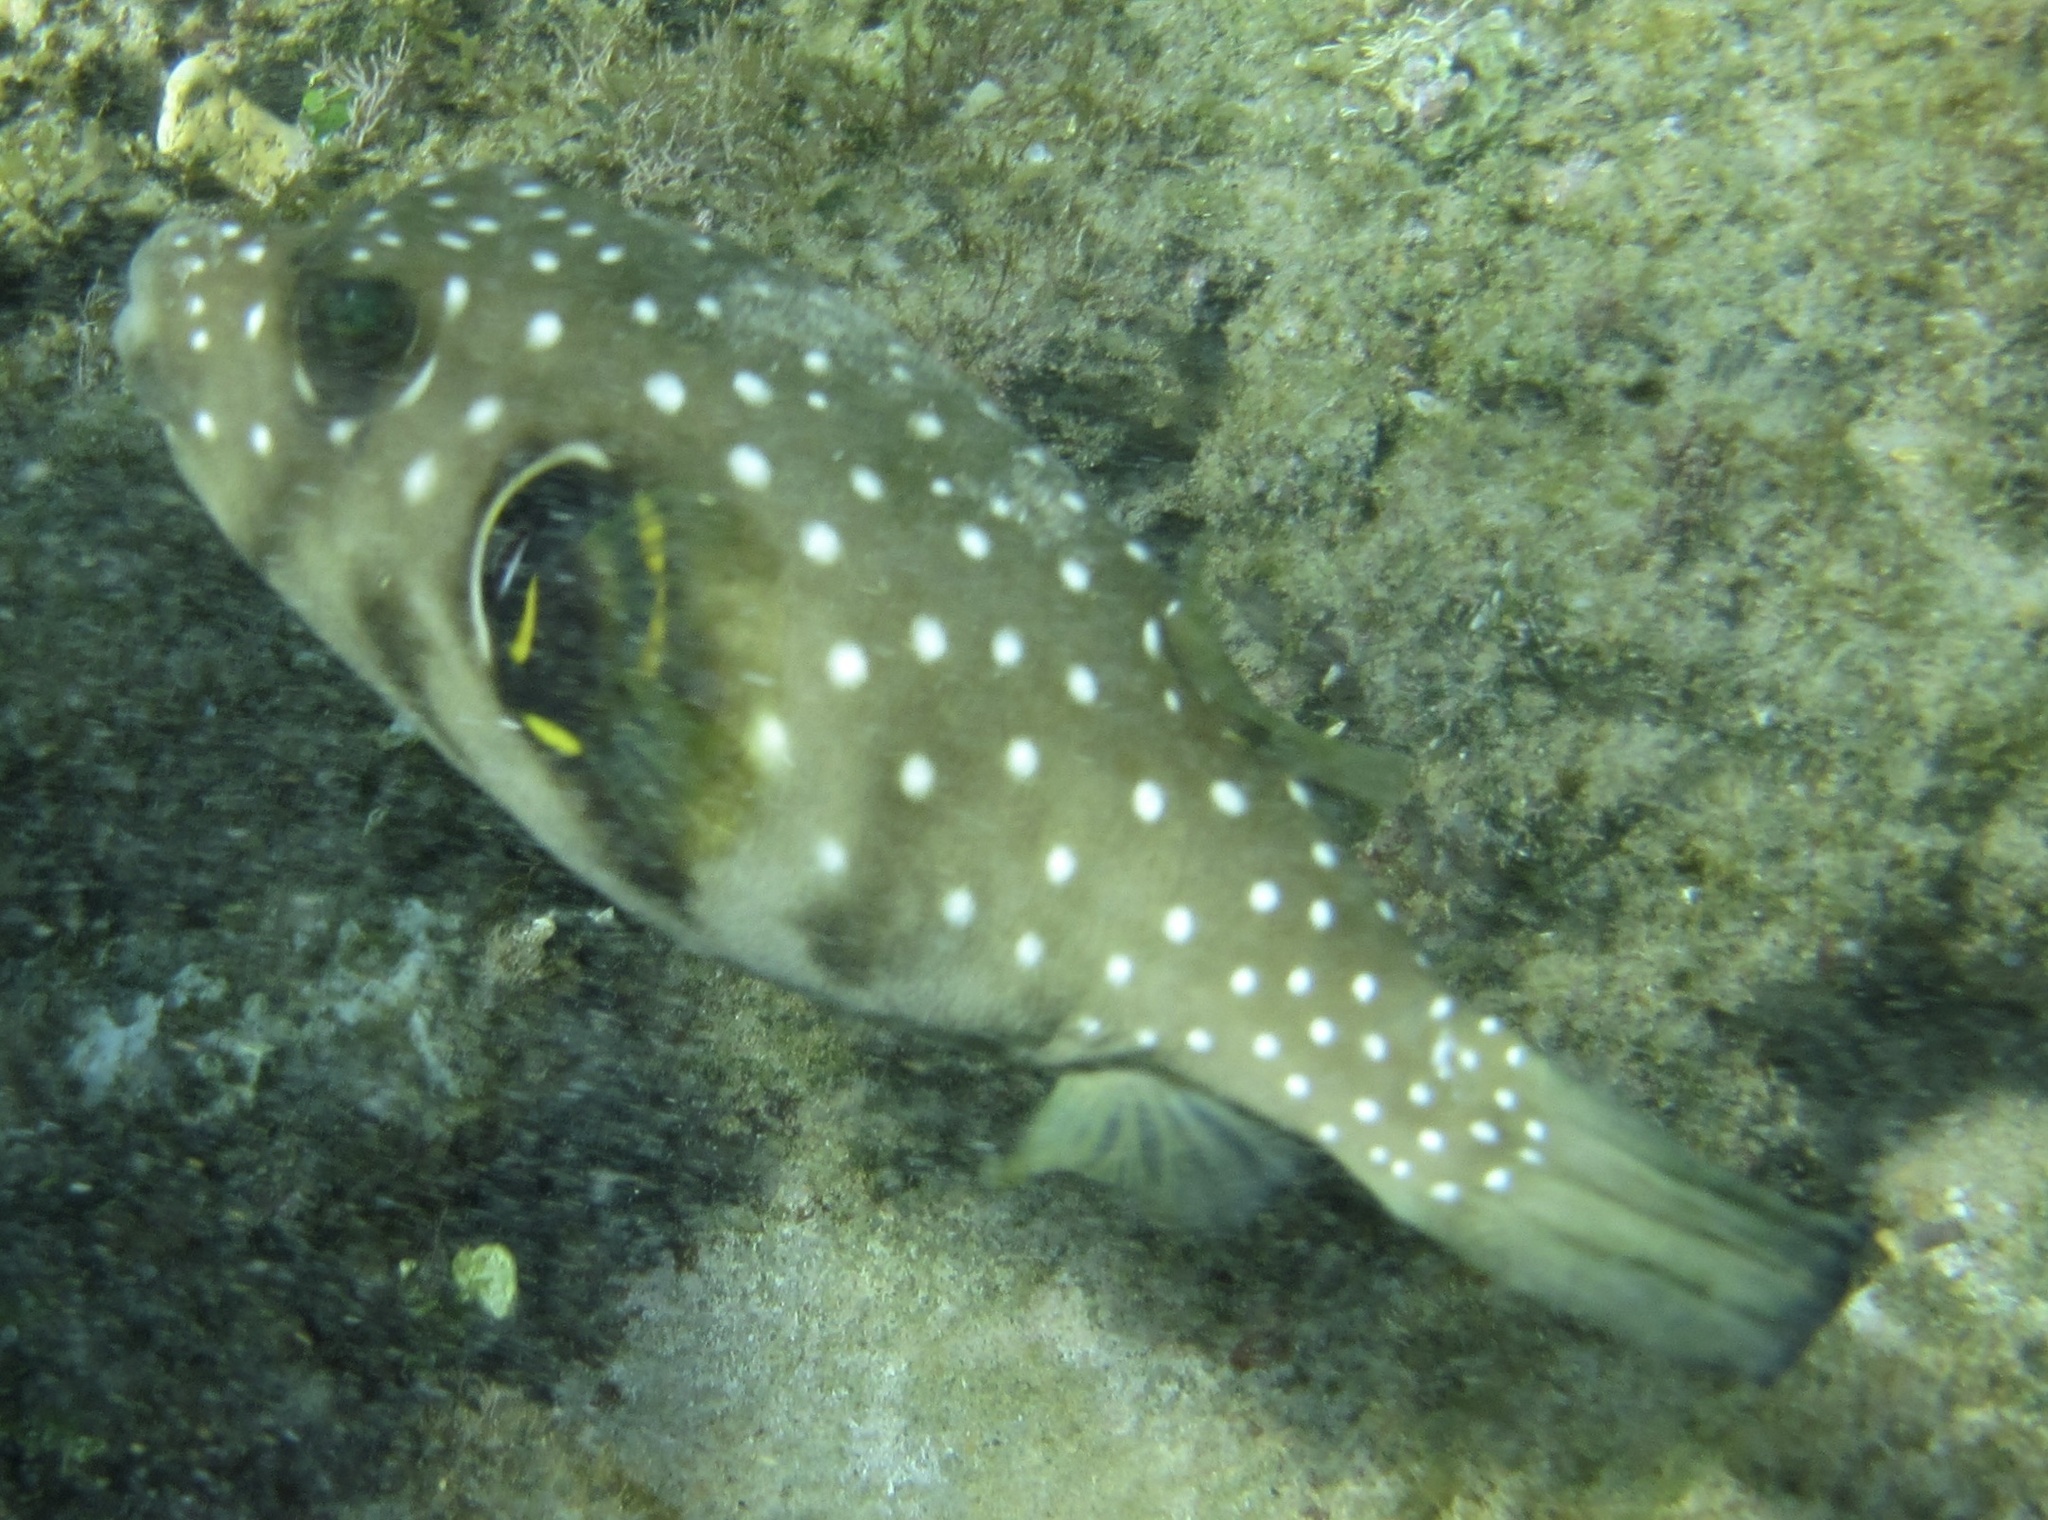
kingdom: Animalia
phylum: Chordata
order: Tetraodontiformes
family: Tetraodontidae
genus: Arothron
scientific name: Arothron hispidus
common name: Stripebelly puffer
